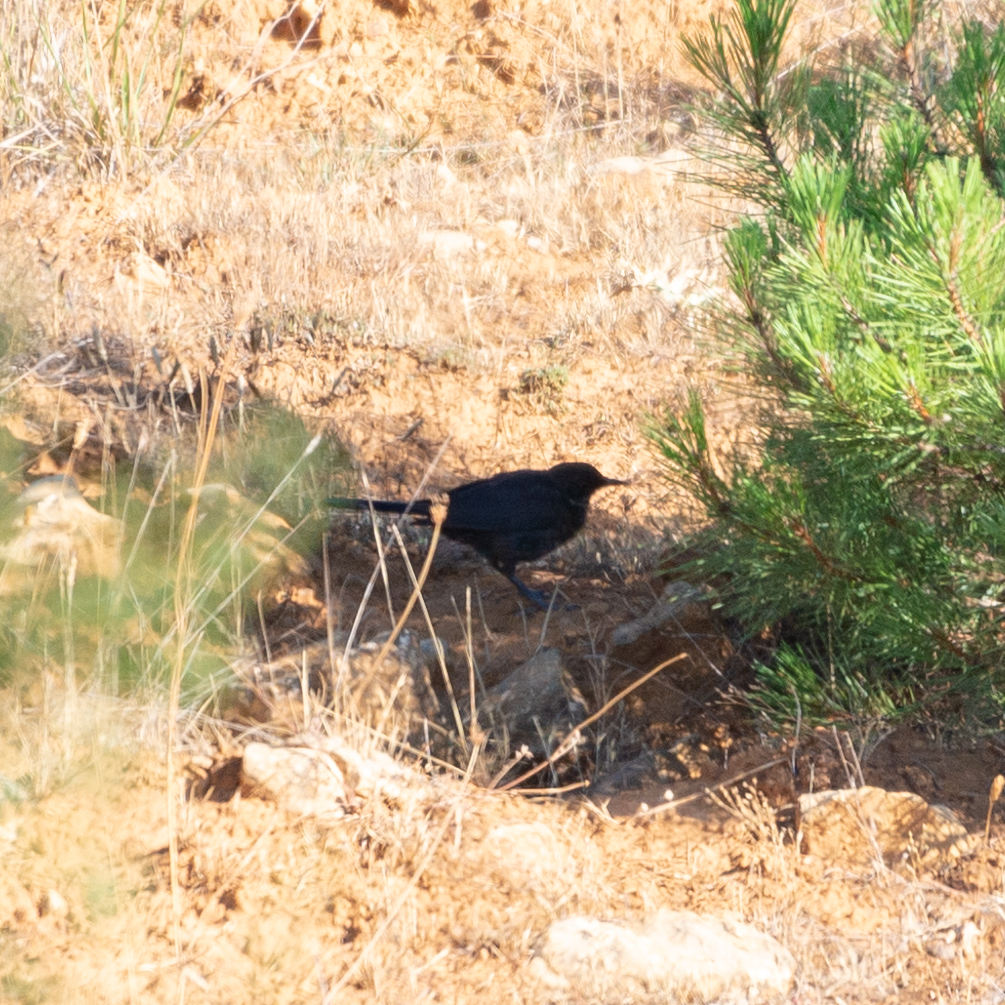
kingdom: Animalia
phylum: Chordata
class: Aves
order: Passeriformes
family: Turdidae
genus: Turdus
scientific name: Turdus merula
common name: Common blackbird
